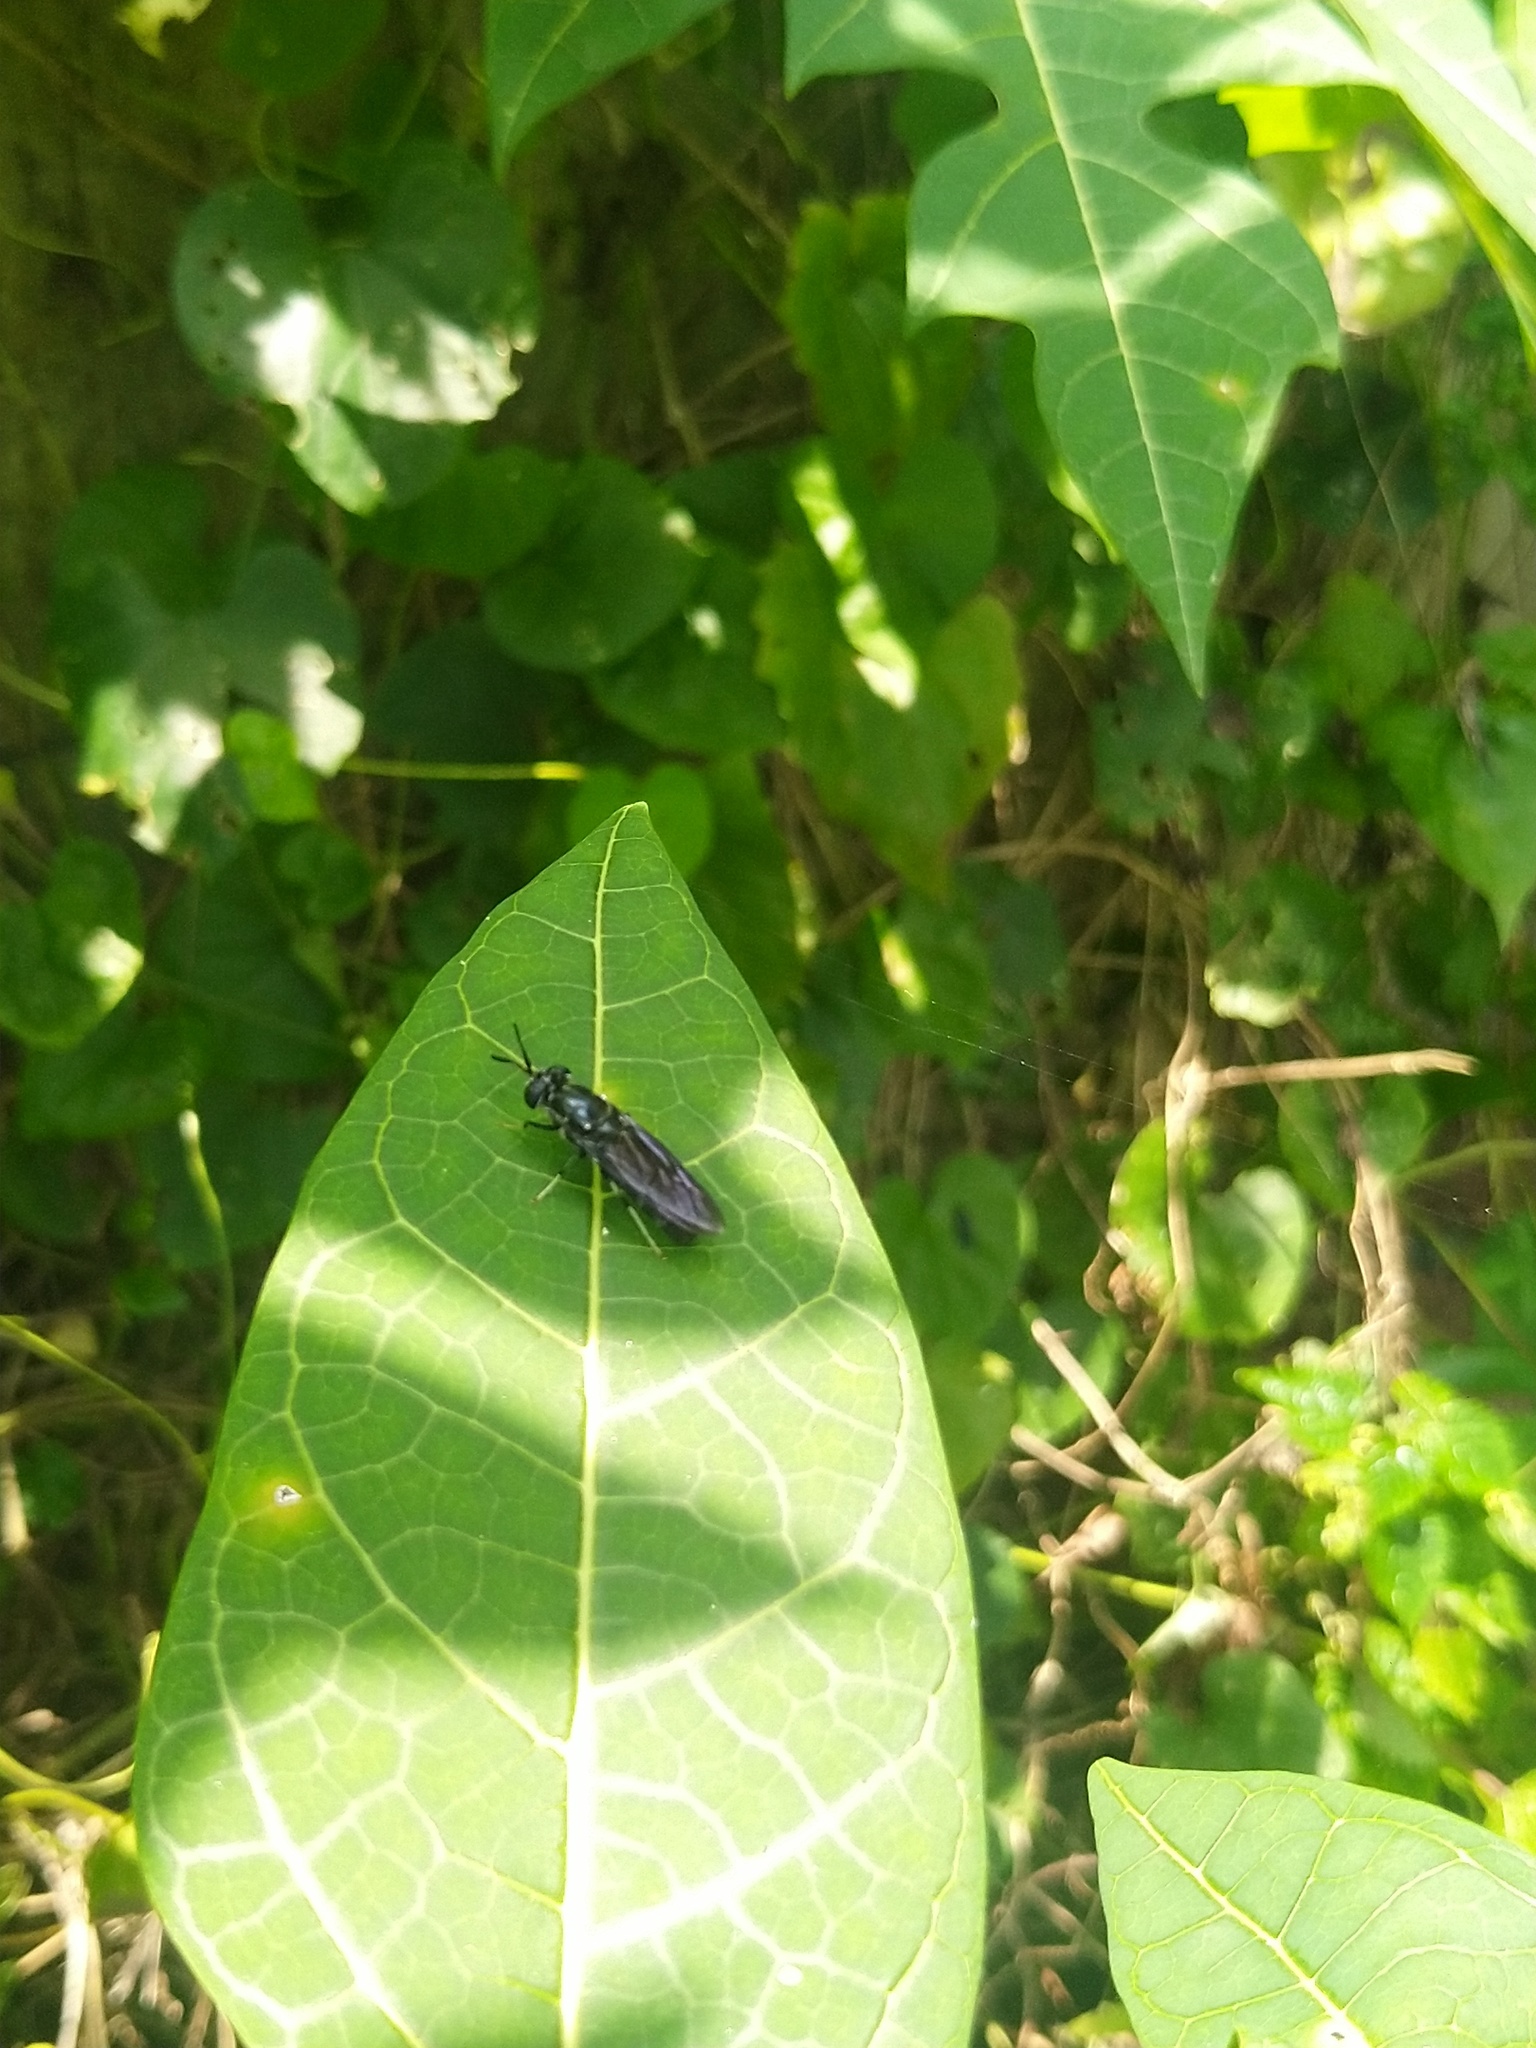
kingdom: Animalia
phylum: Arthropoda
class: Insecta
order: Diptera
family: Stratiomyidae
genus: Hermetia
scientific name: Hermetia illucens
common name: Black soldier fly
